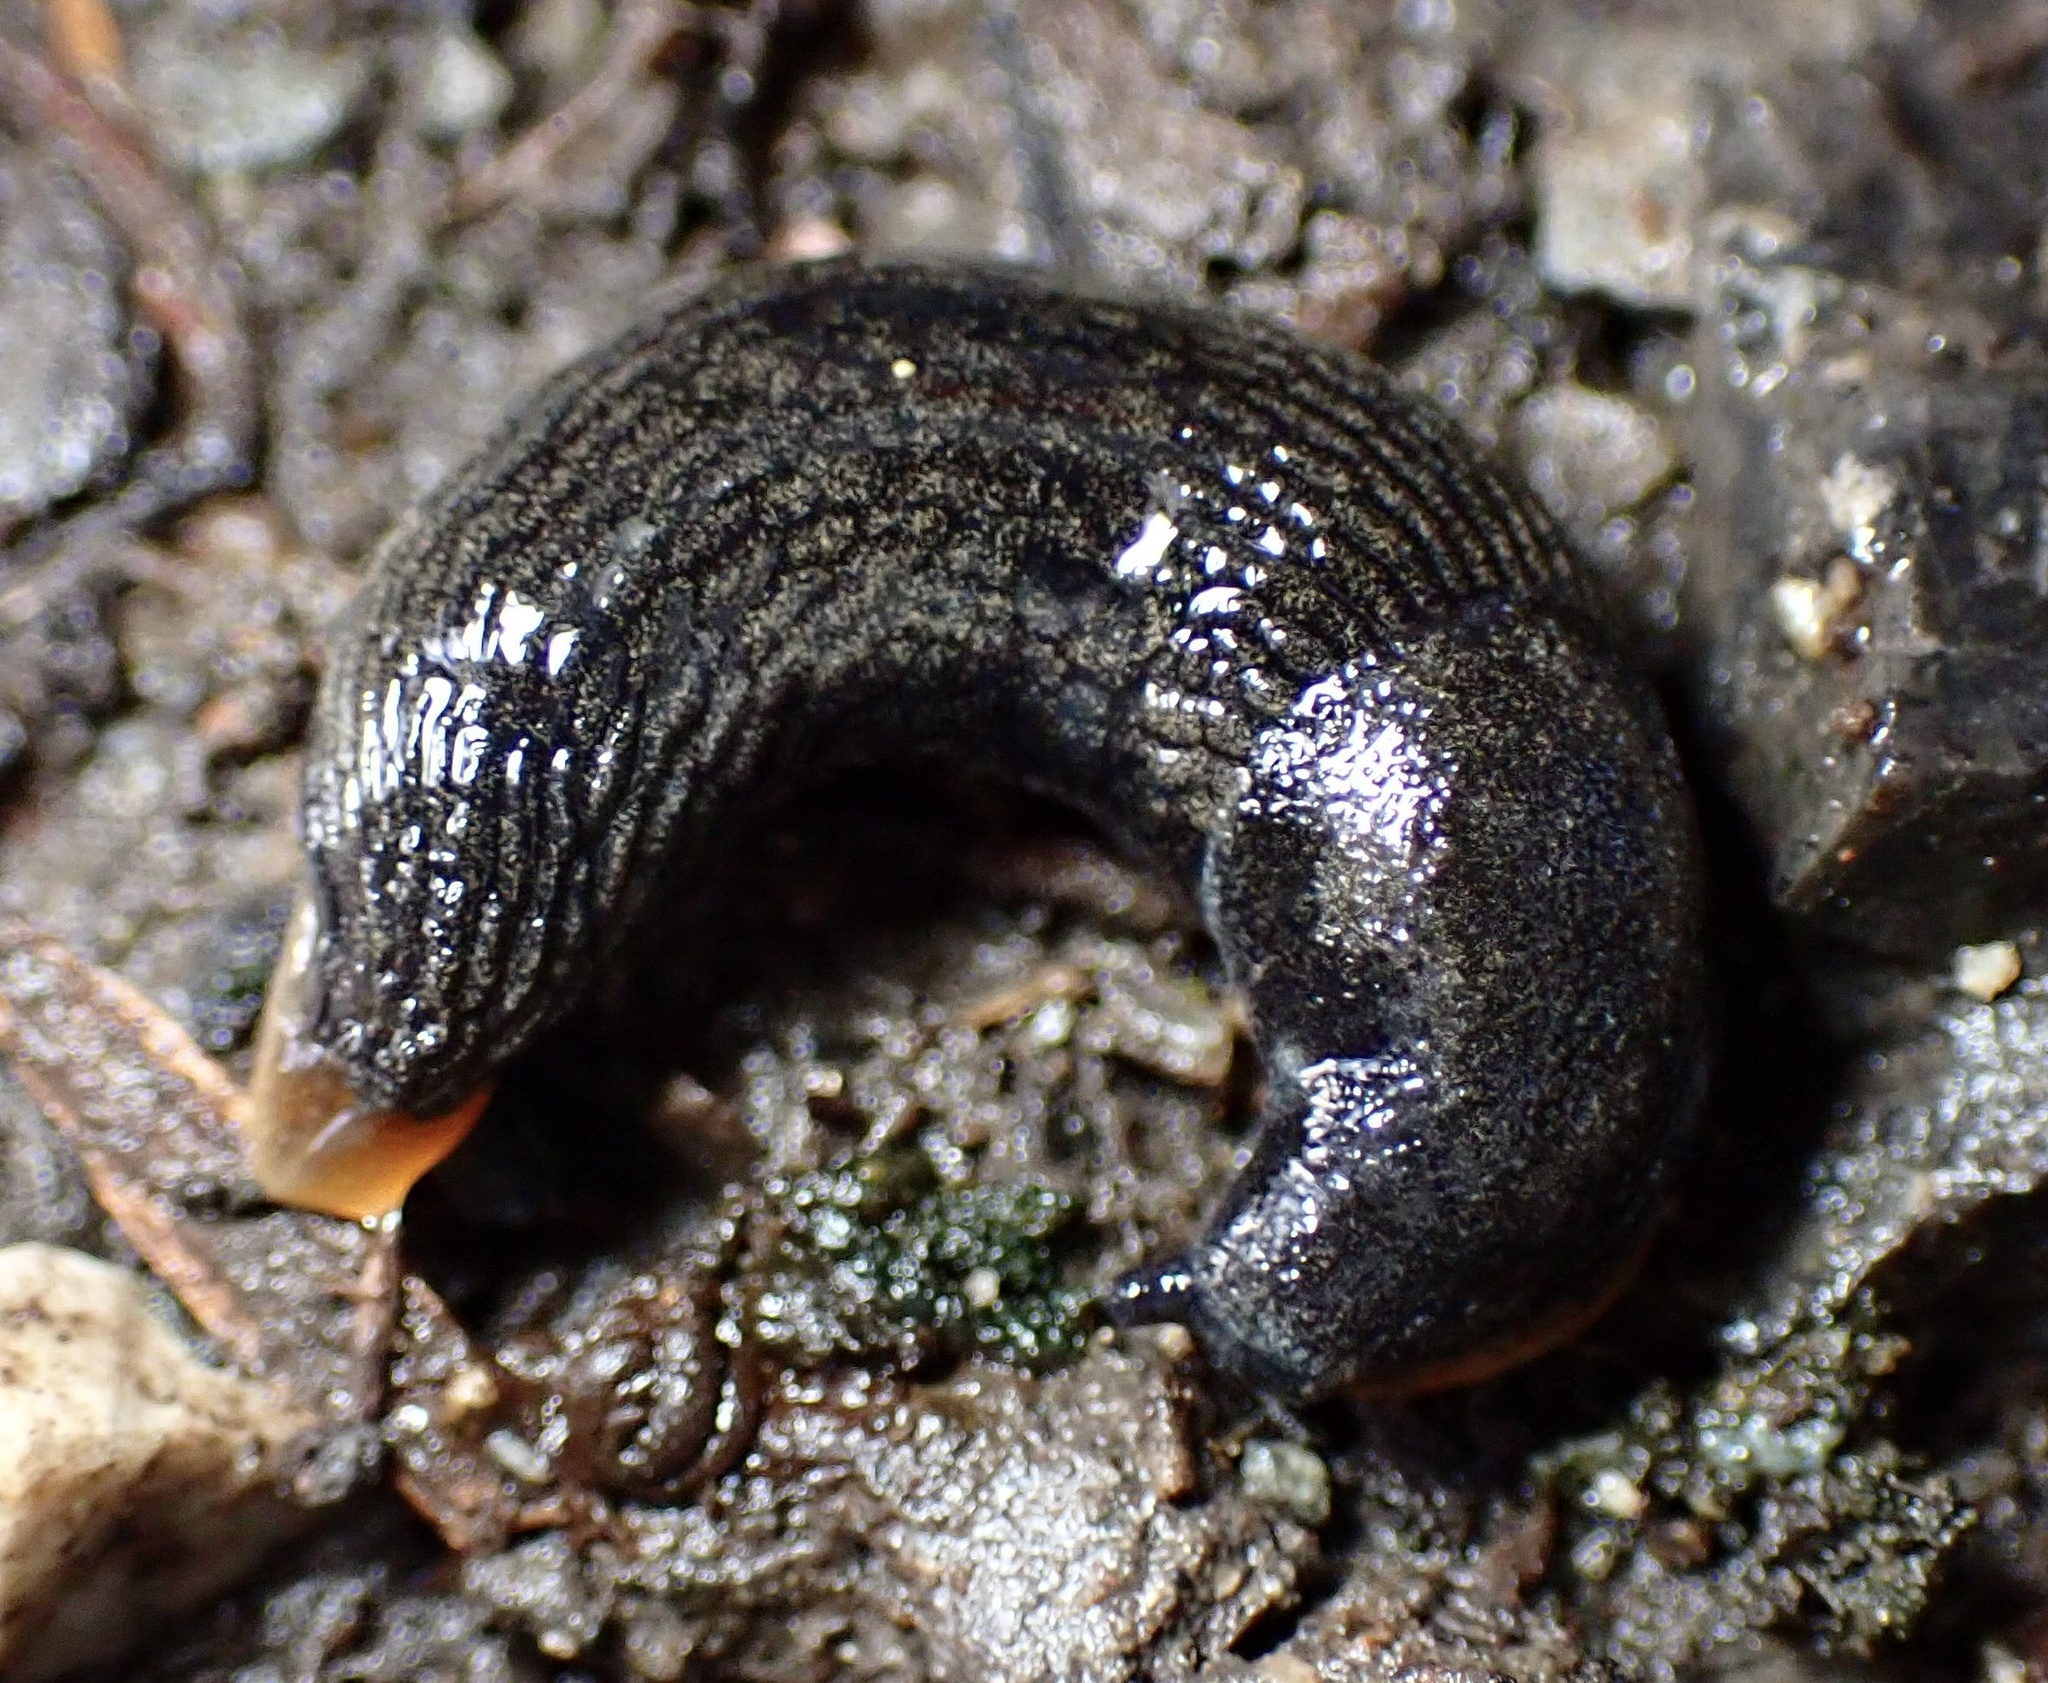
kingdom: Animalia
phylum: Mollusca
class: Gastropoda
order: Stylommatophora
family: Arionidae
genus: Kobeltia
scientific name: Kobeltia
